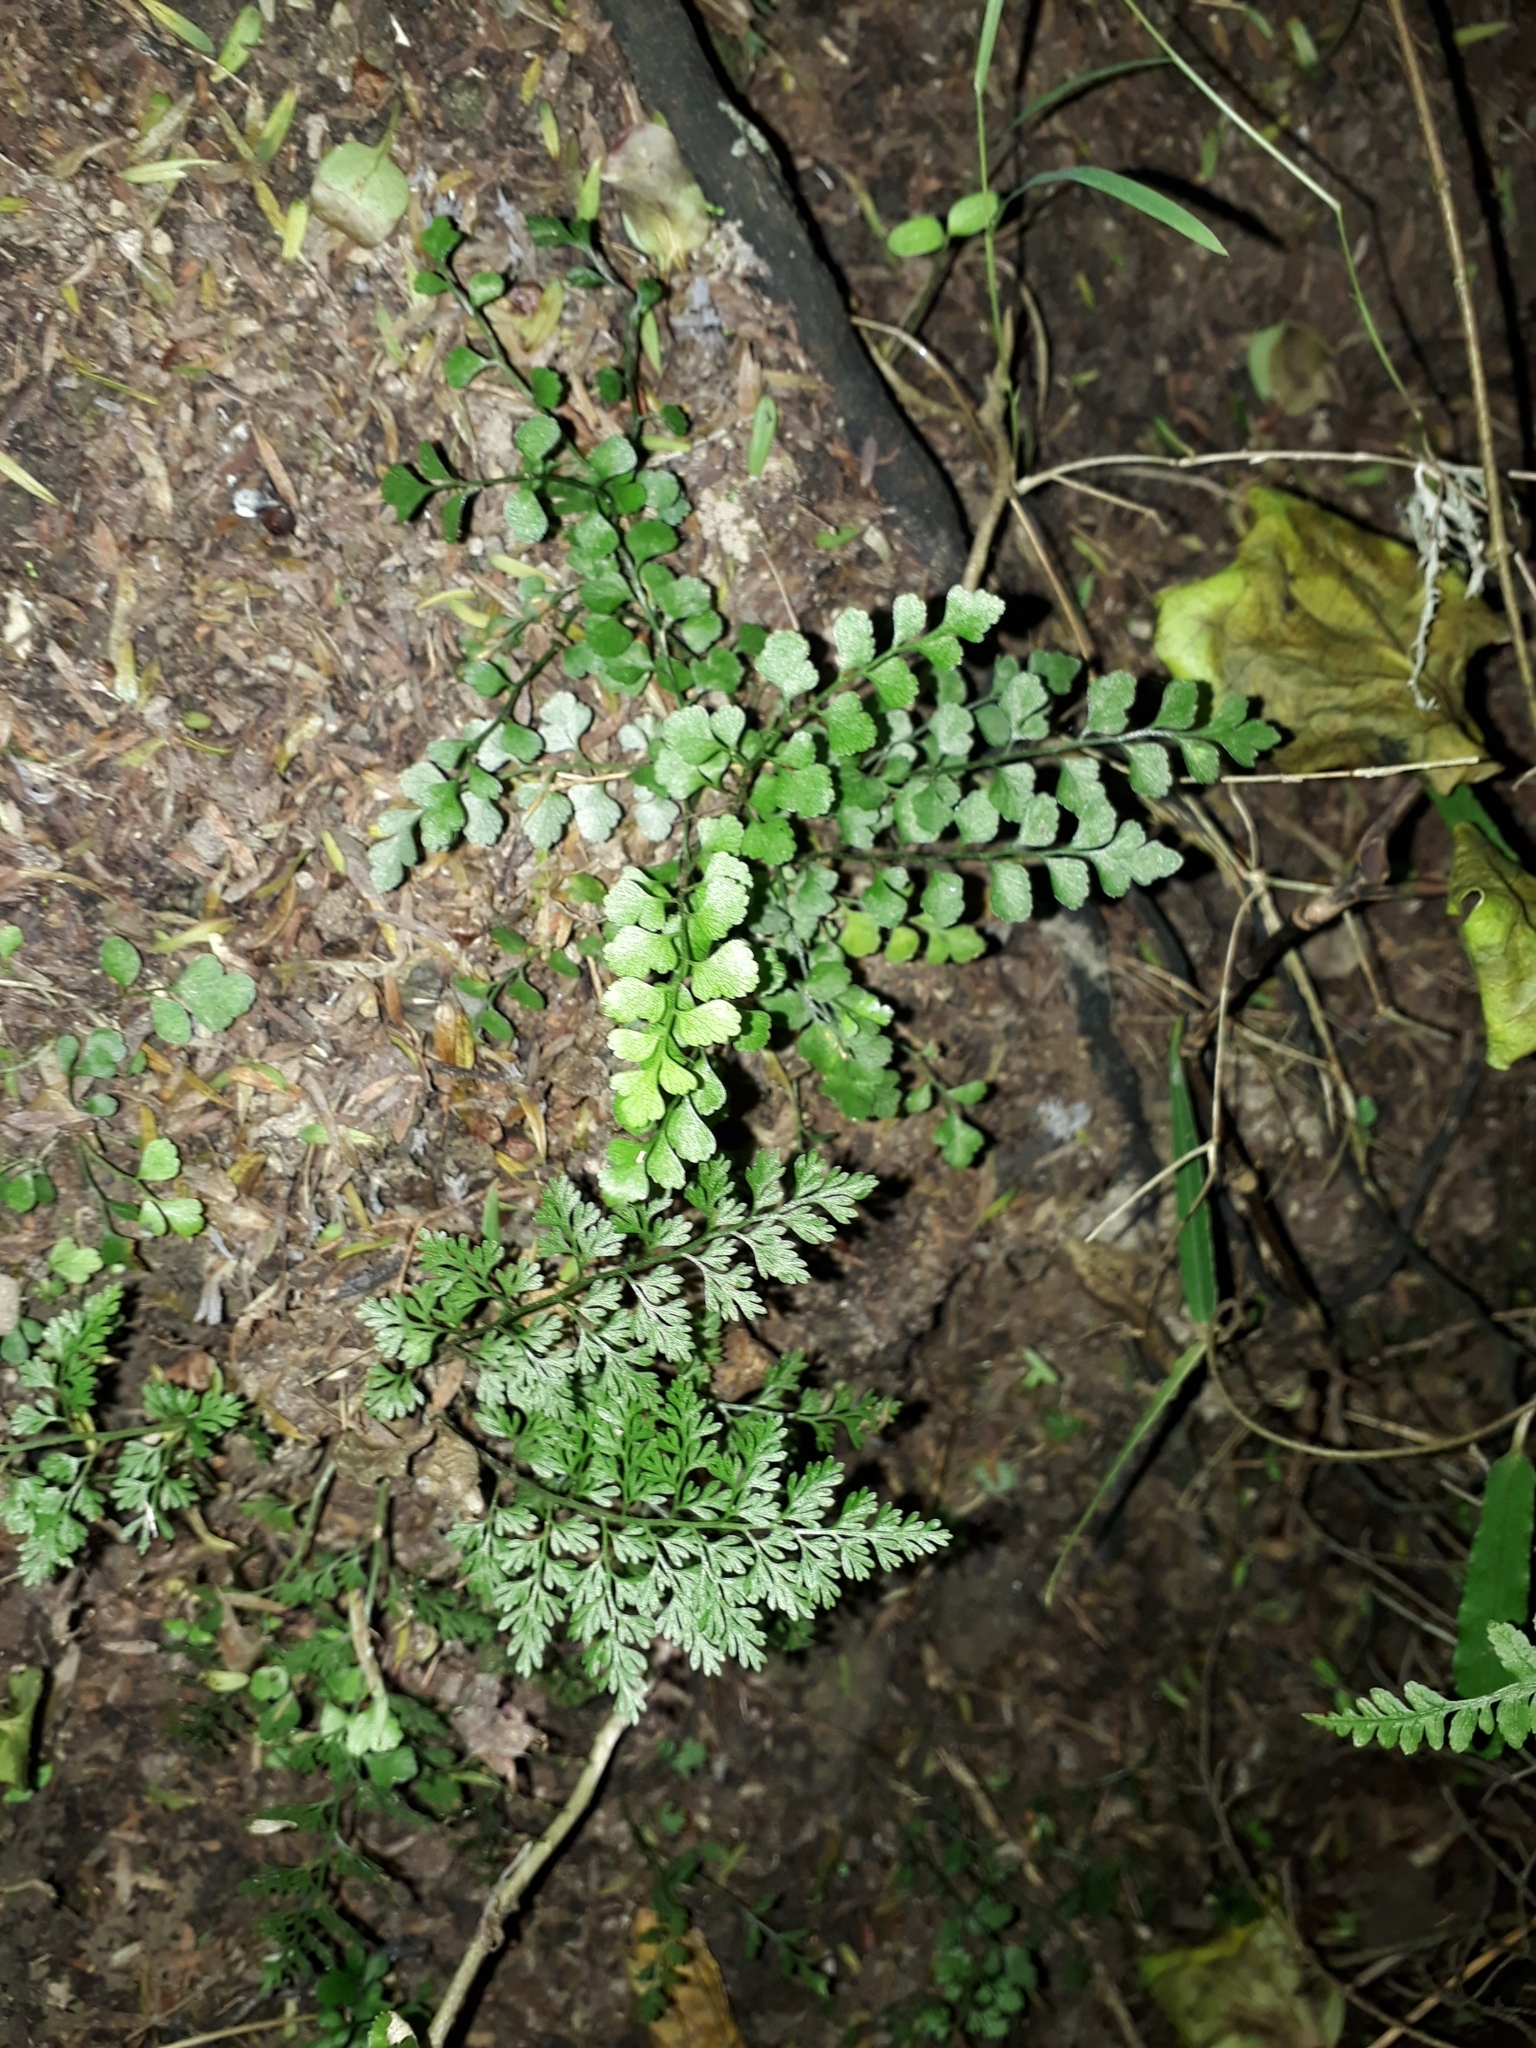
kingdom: Plantae
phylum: Tracheophyta
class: Polypodiopsida
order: Polypodiales
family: Aspleniaceae
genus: Asplenium
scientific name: Asplenium hookerianum
